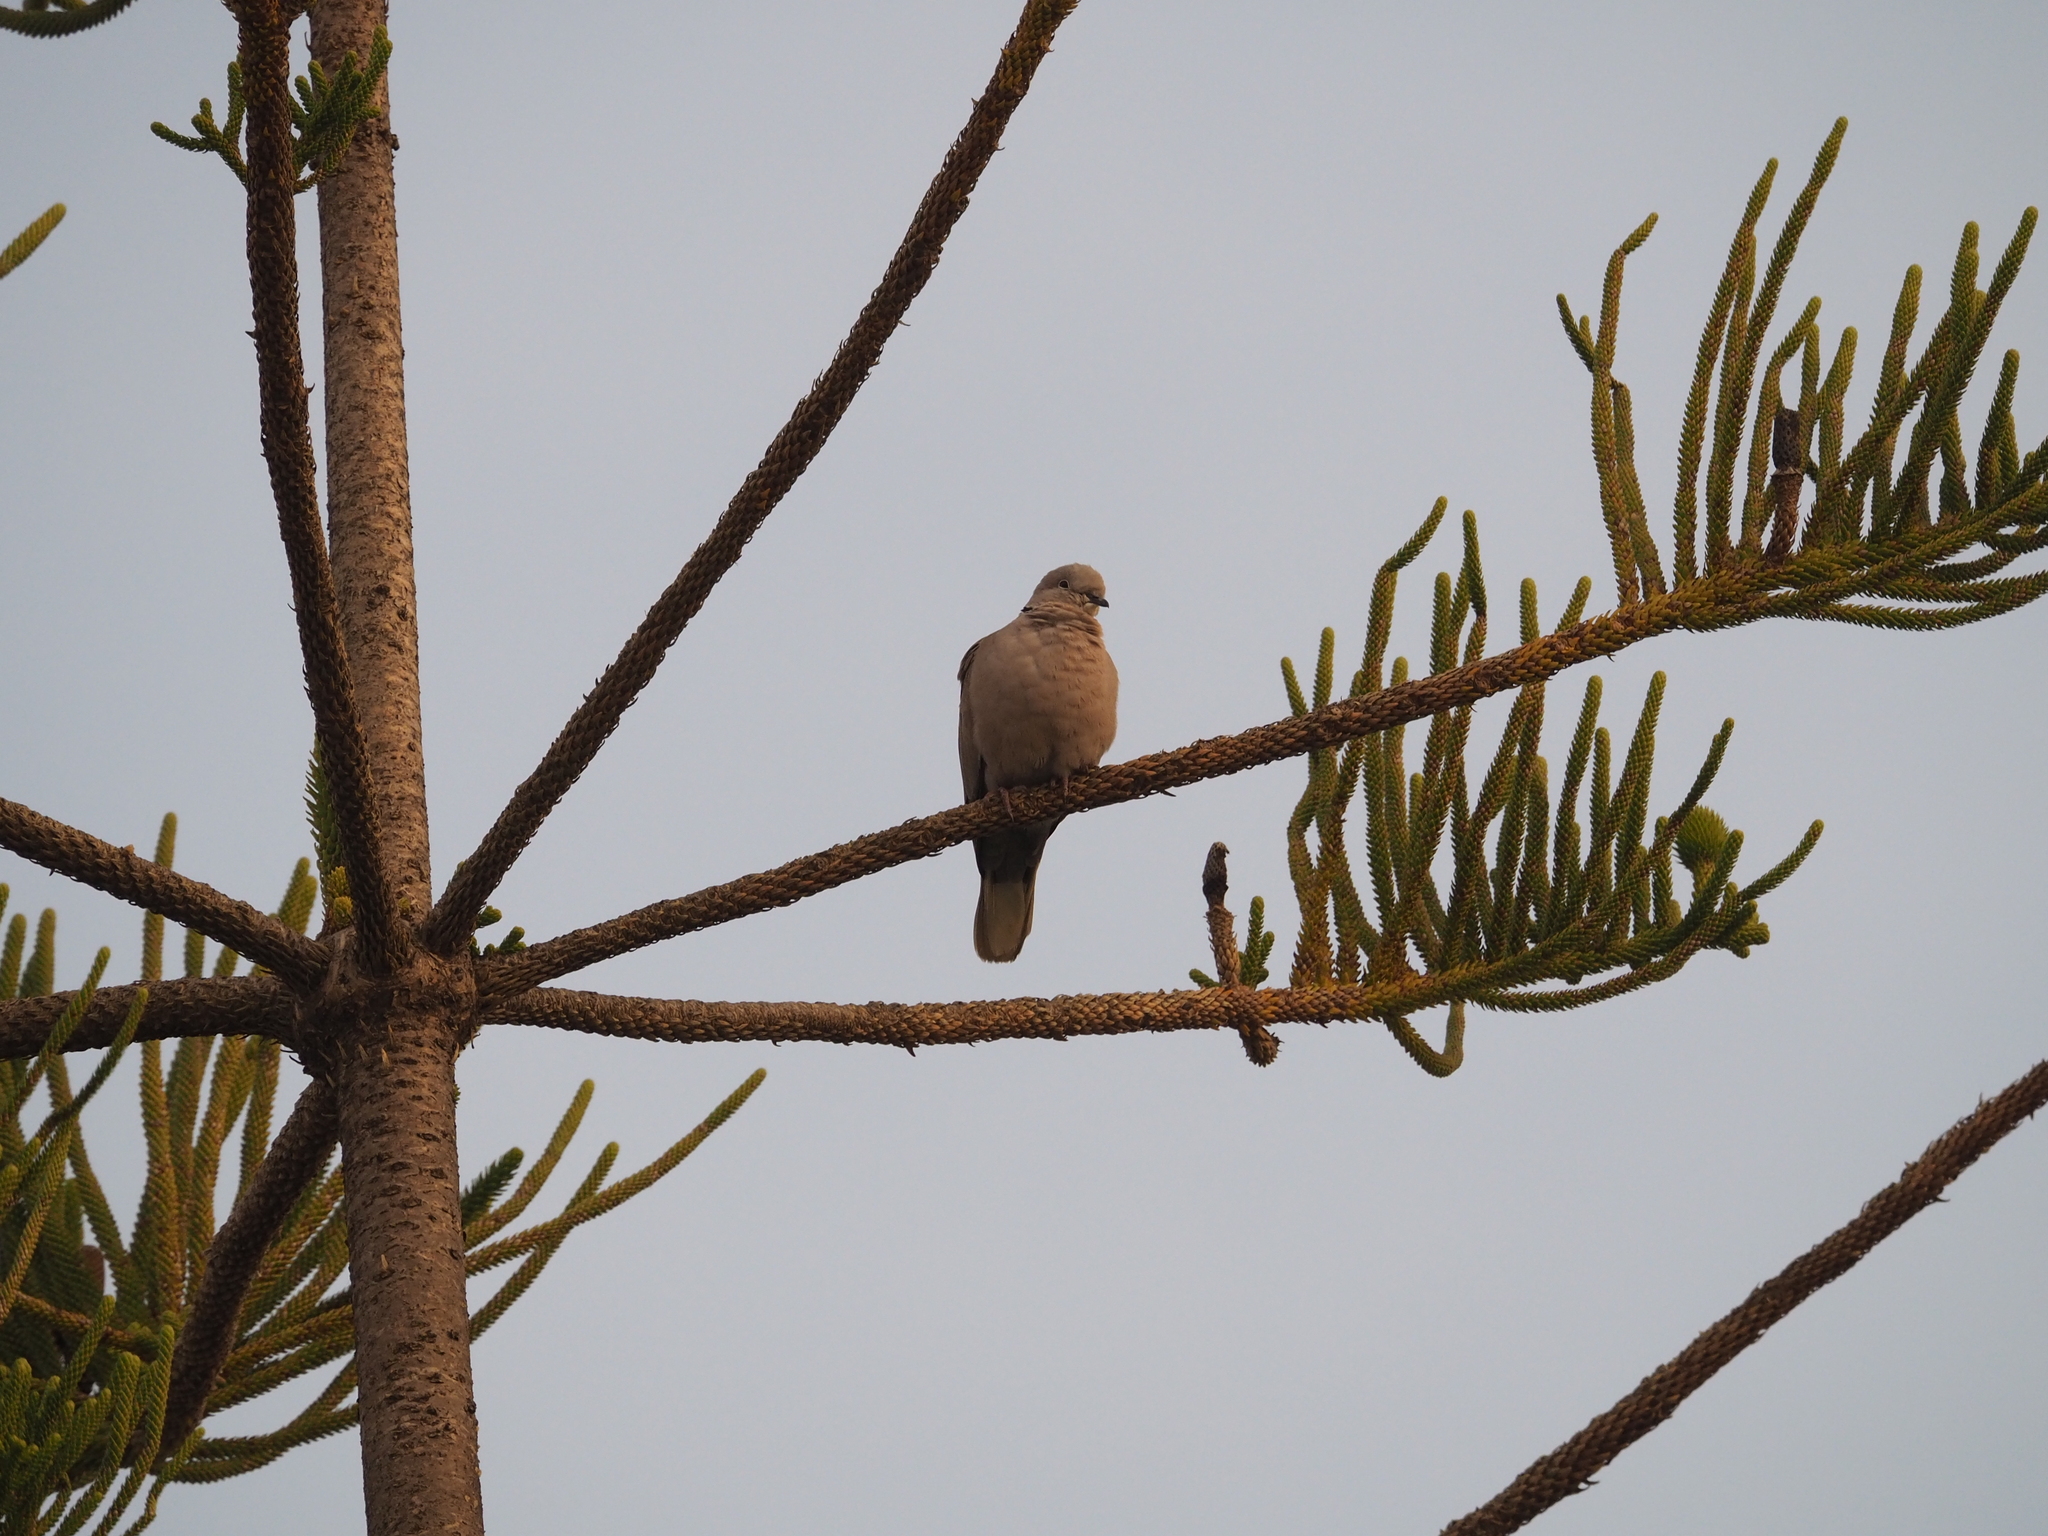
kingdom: Animalia
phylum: Chordata
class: Aves
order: Columbiformes
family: Columbidae
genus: Streptopelia
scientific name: Streptopelia decaocto
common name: Eurasian collared dove
